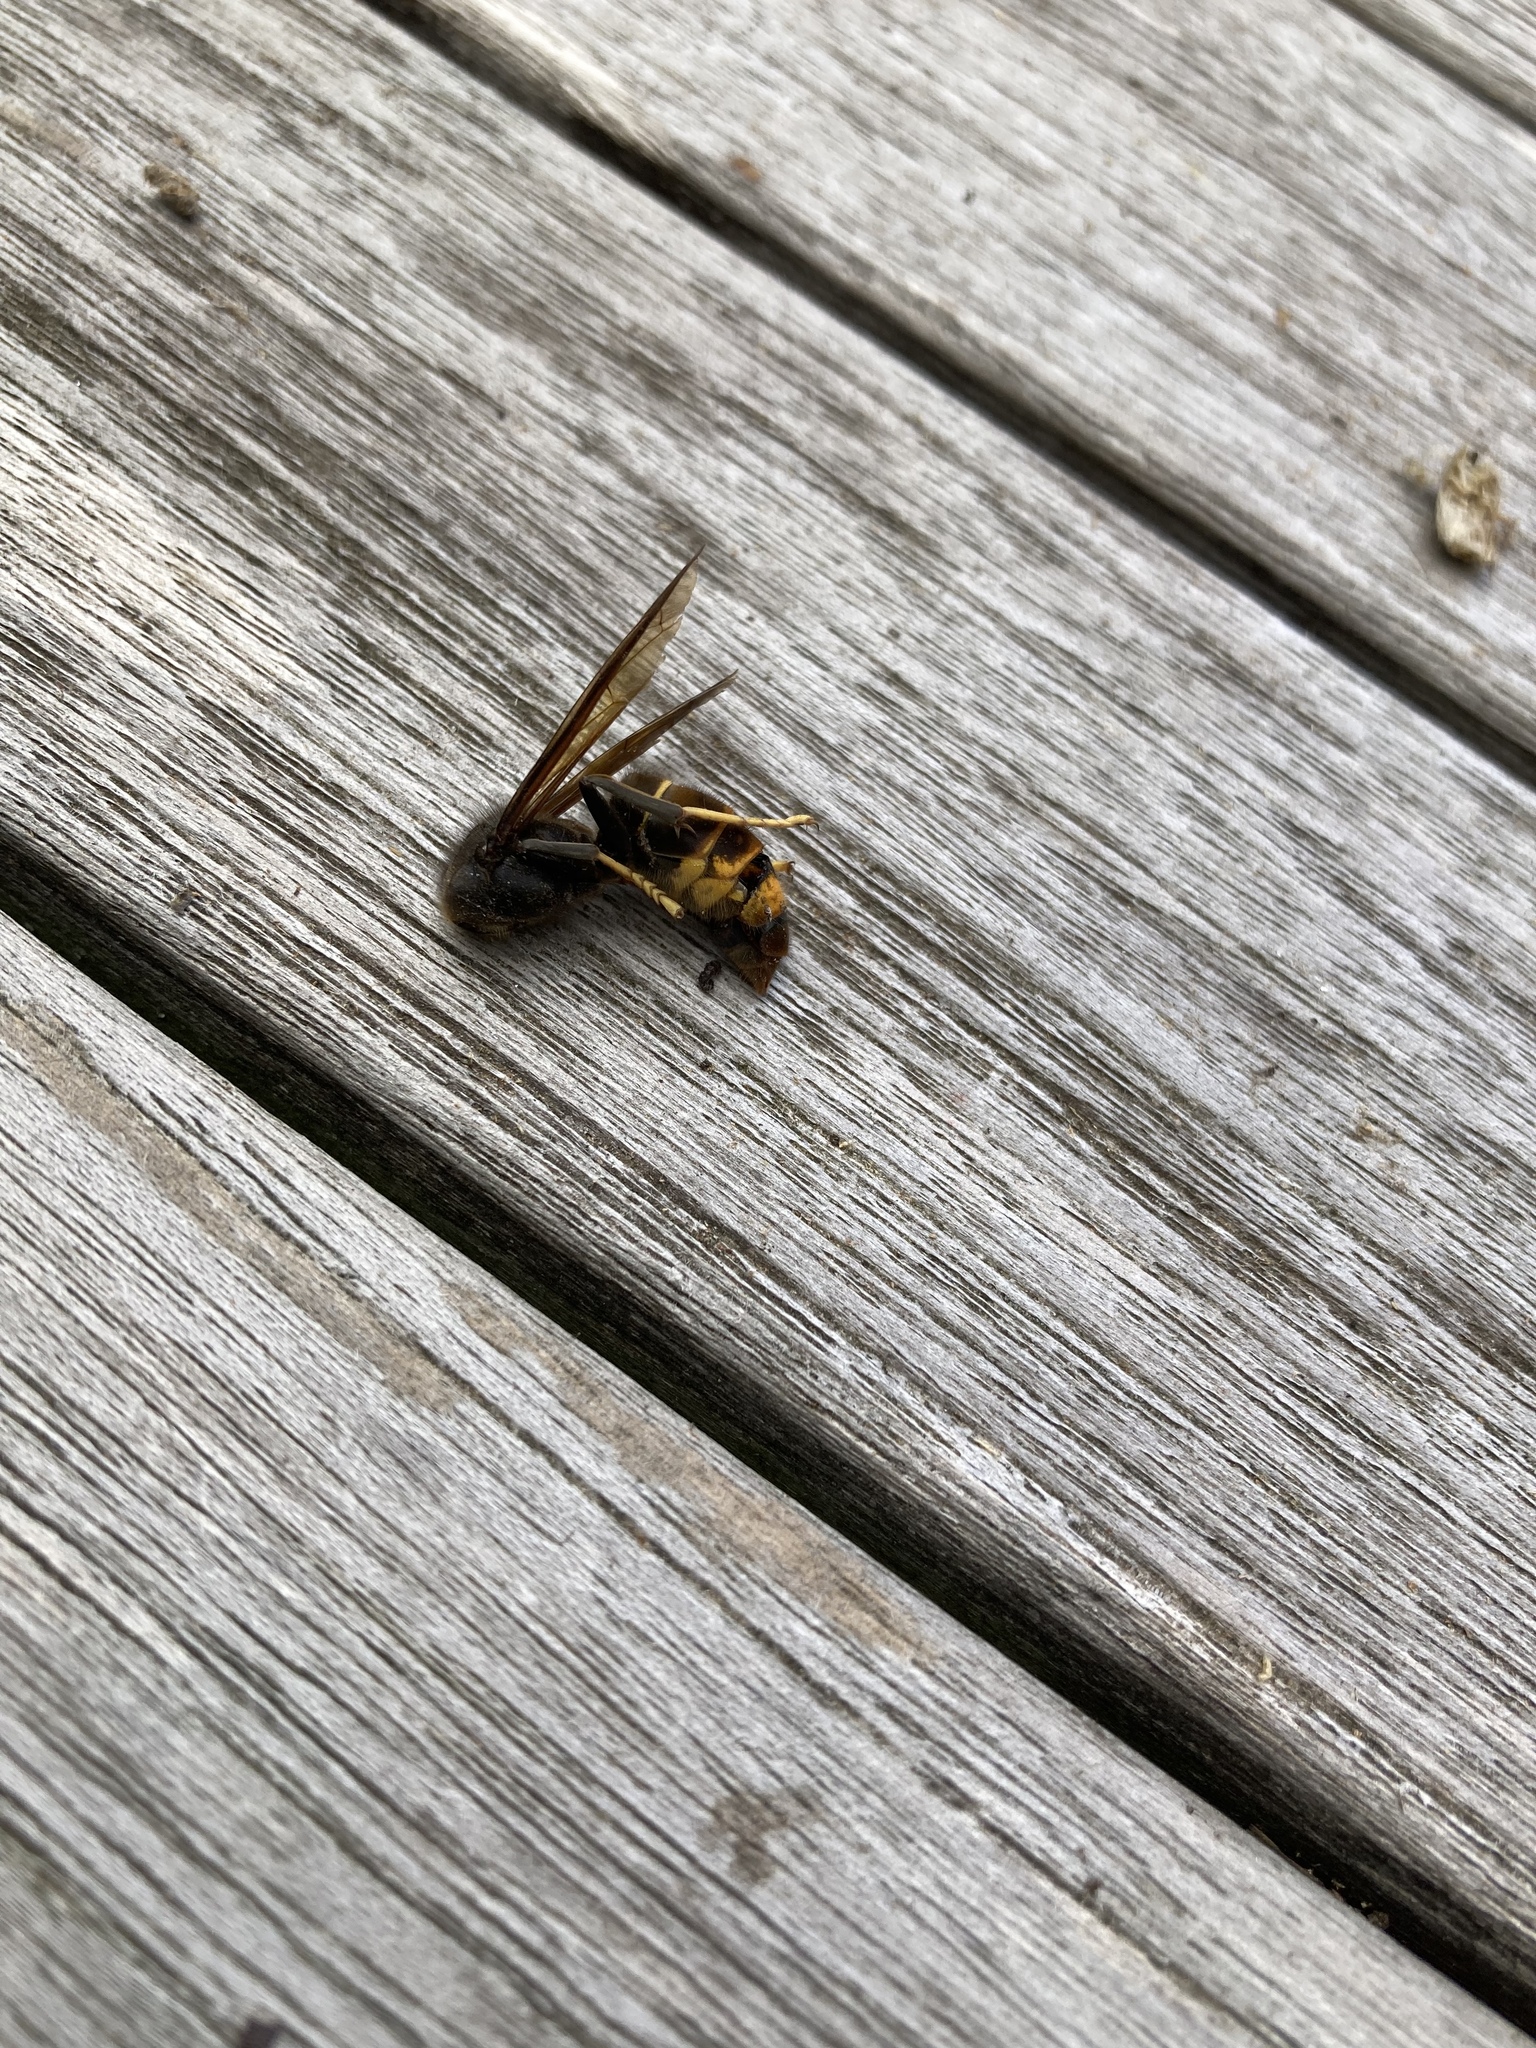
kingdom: Animalia
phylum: Arthropoda
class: Insecta
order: Hymenoptera
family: Vespidae
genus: Vespa
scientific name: Vespa velutina
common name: Asian hornet
